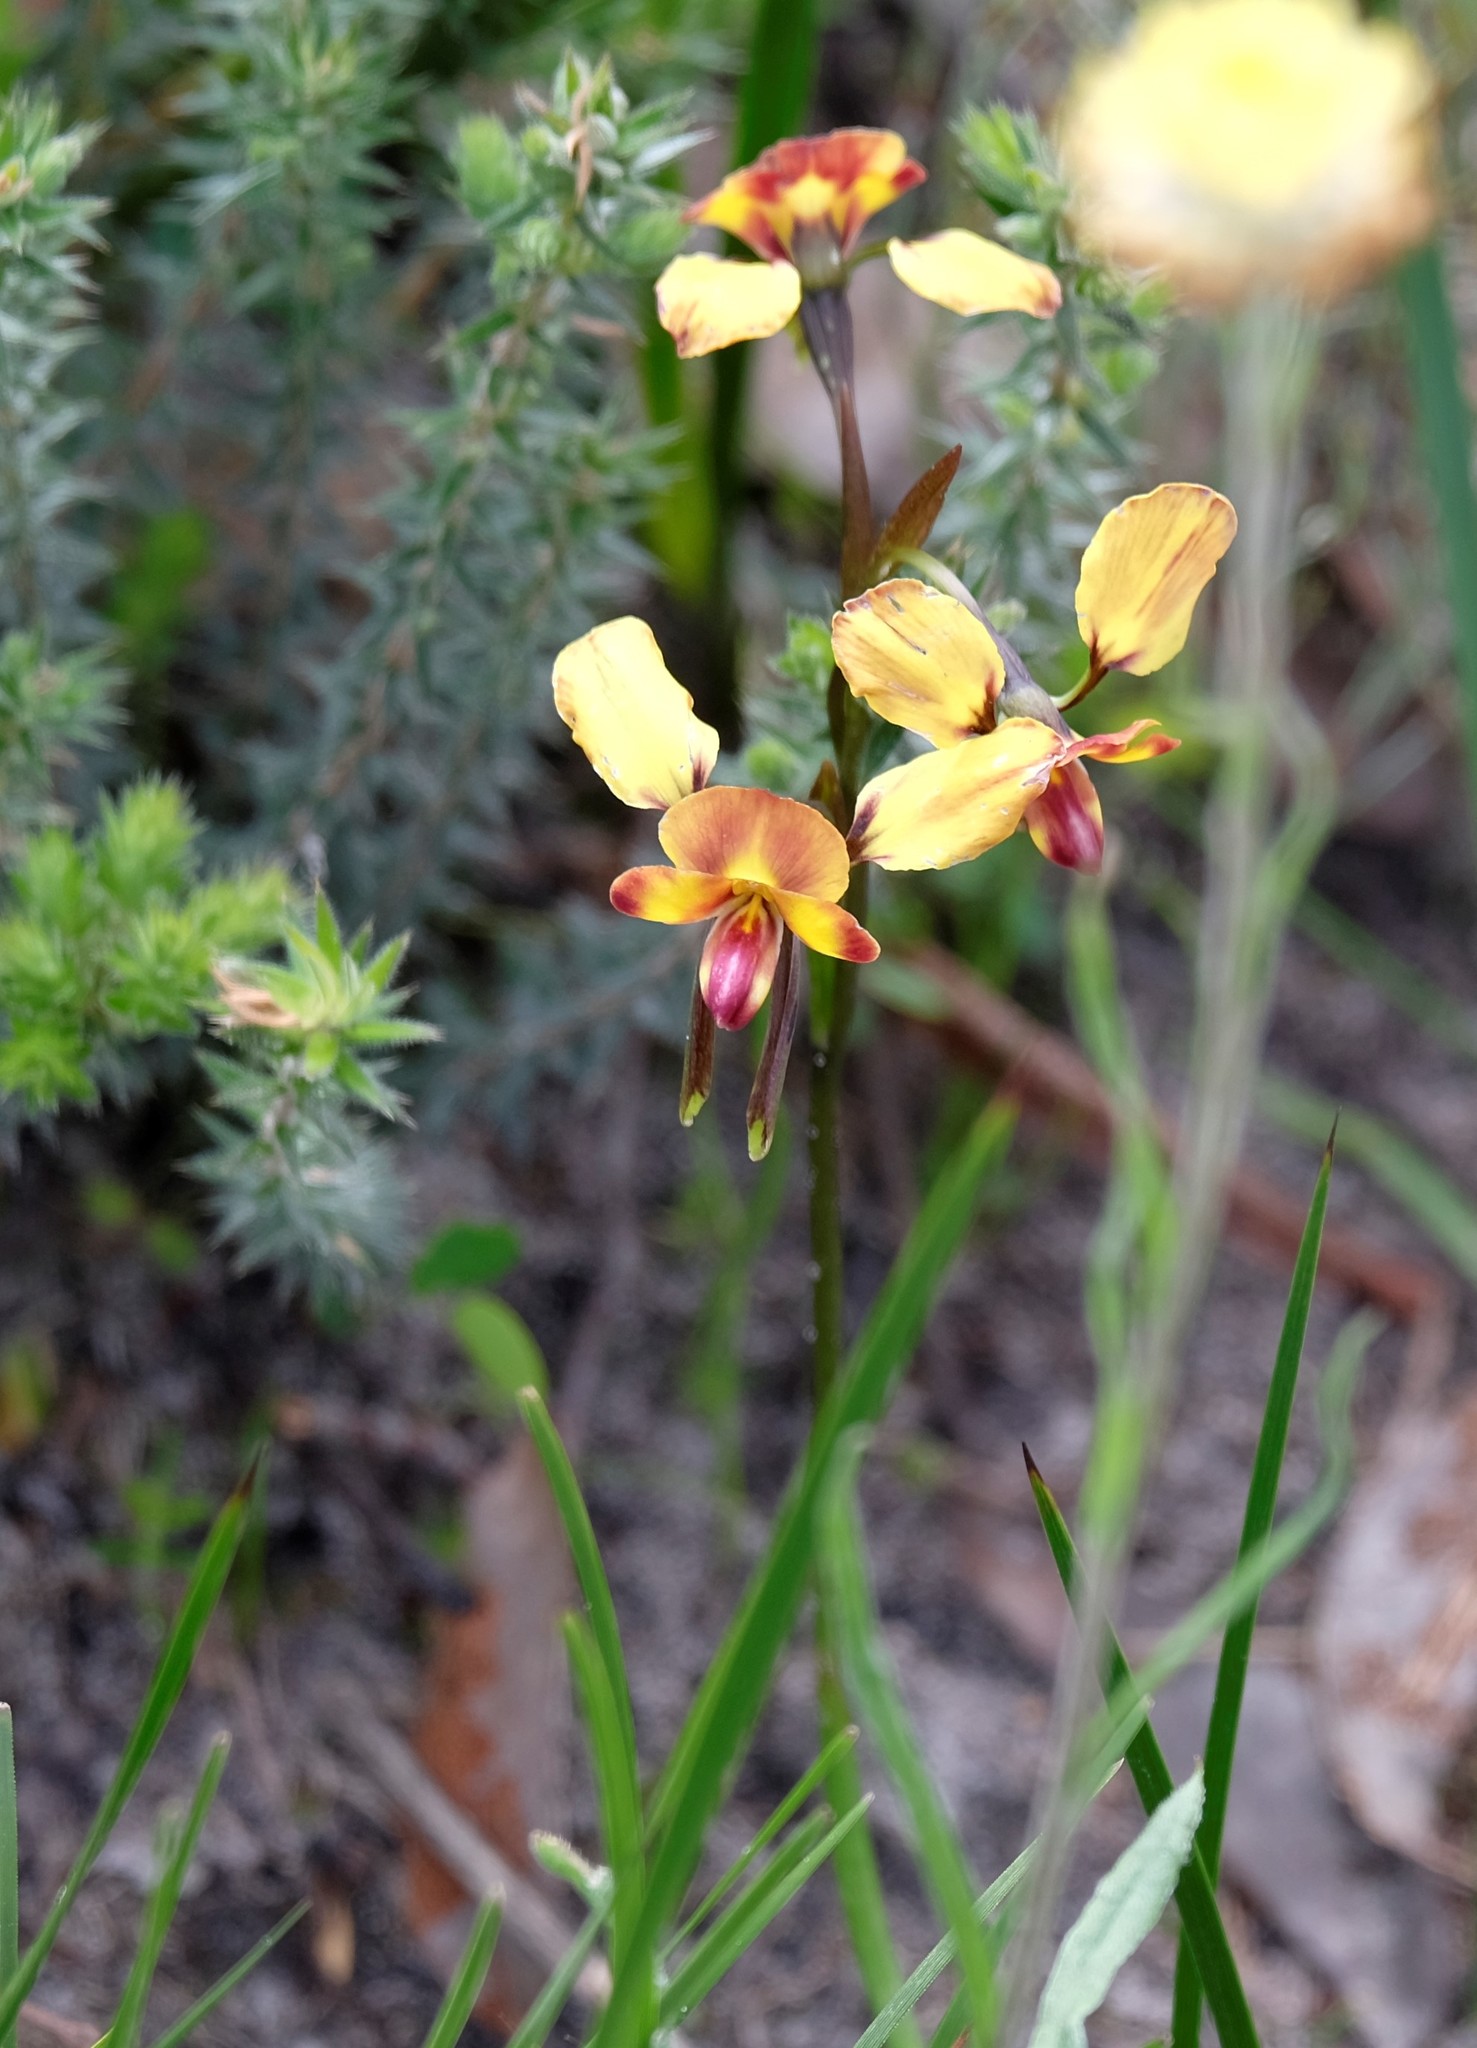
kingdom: Plantae
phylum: Tracheophyta
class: Liliopsida
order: Asparagales
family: Orchidaceae
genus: Diuris
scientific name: Diuris orientis
